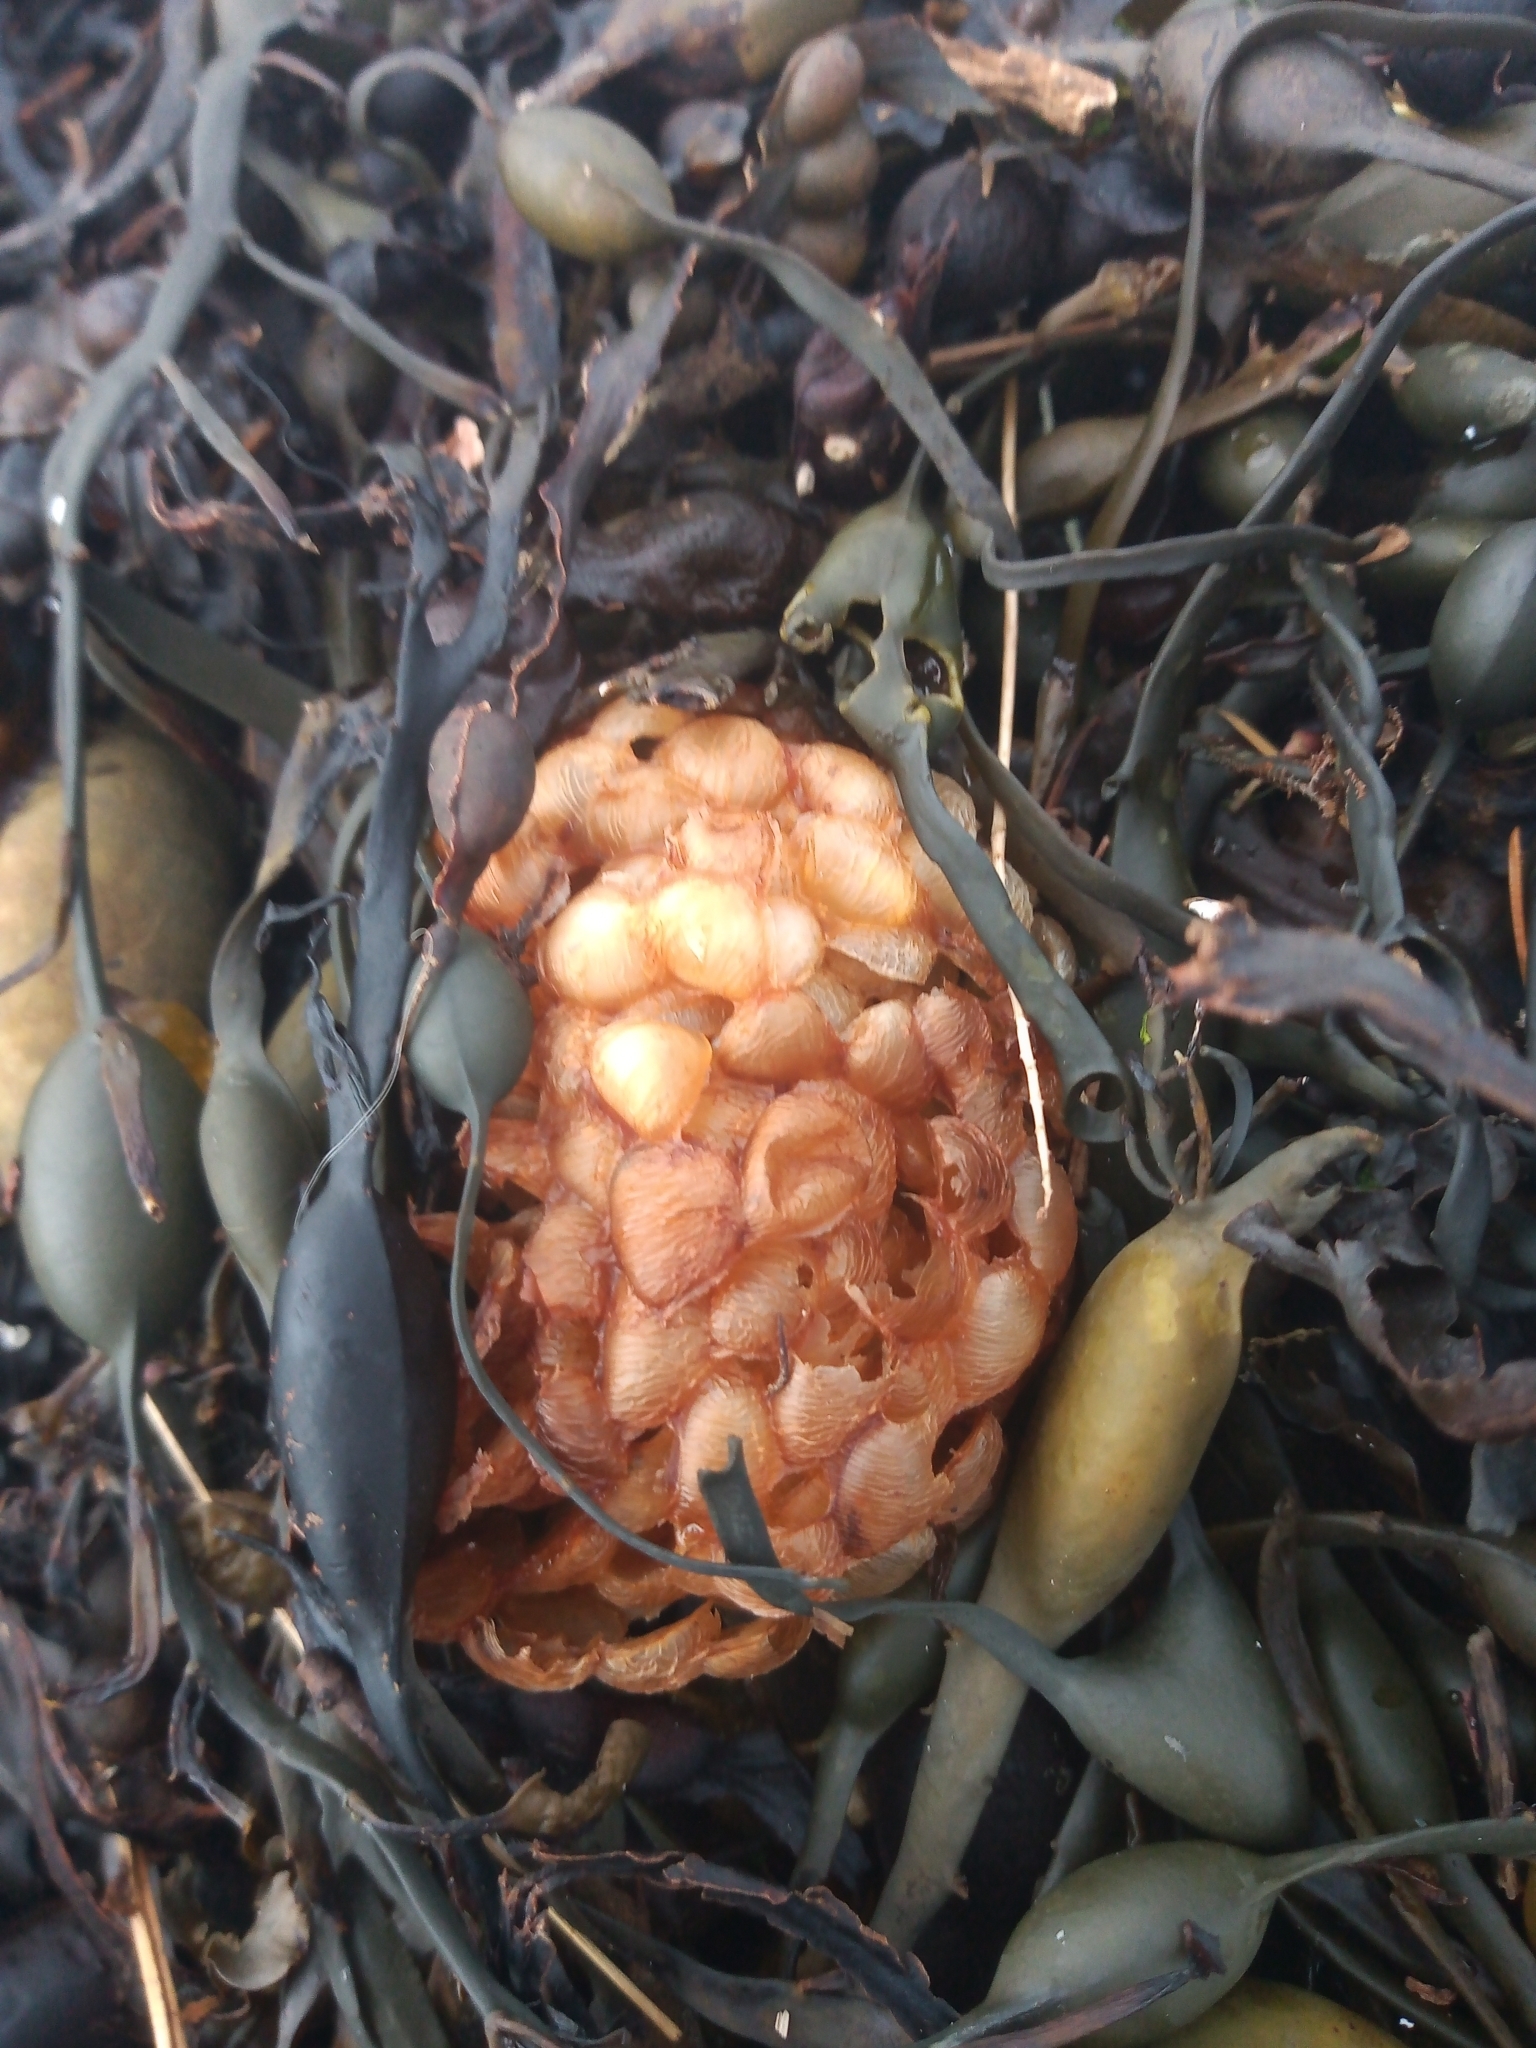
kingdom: Animalia
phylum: Mollusca
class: Gastropoda
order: Neogastropoda
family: Buccinidae
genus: Buccinum
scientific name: Buccinum undatum
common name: Common whelk
